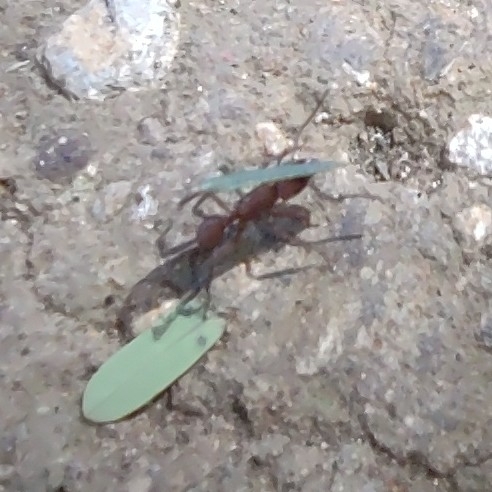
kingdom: Animalia
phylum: Arthropoda
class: Insecta
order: Hymenoptera
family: Formicidae
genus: Acromyrmex
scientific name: Acromyrmex octospinosus
